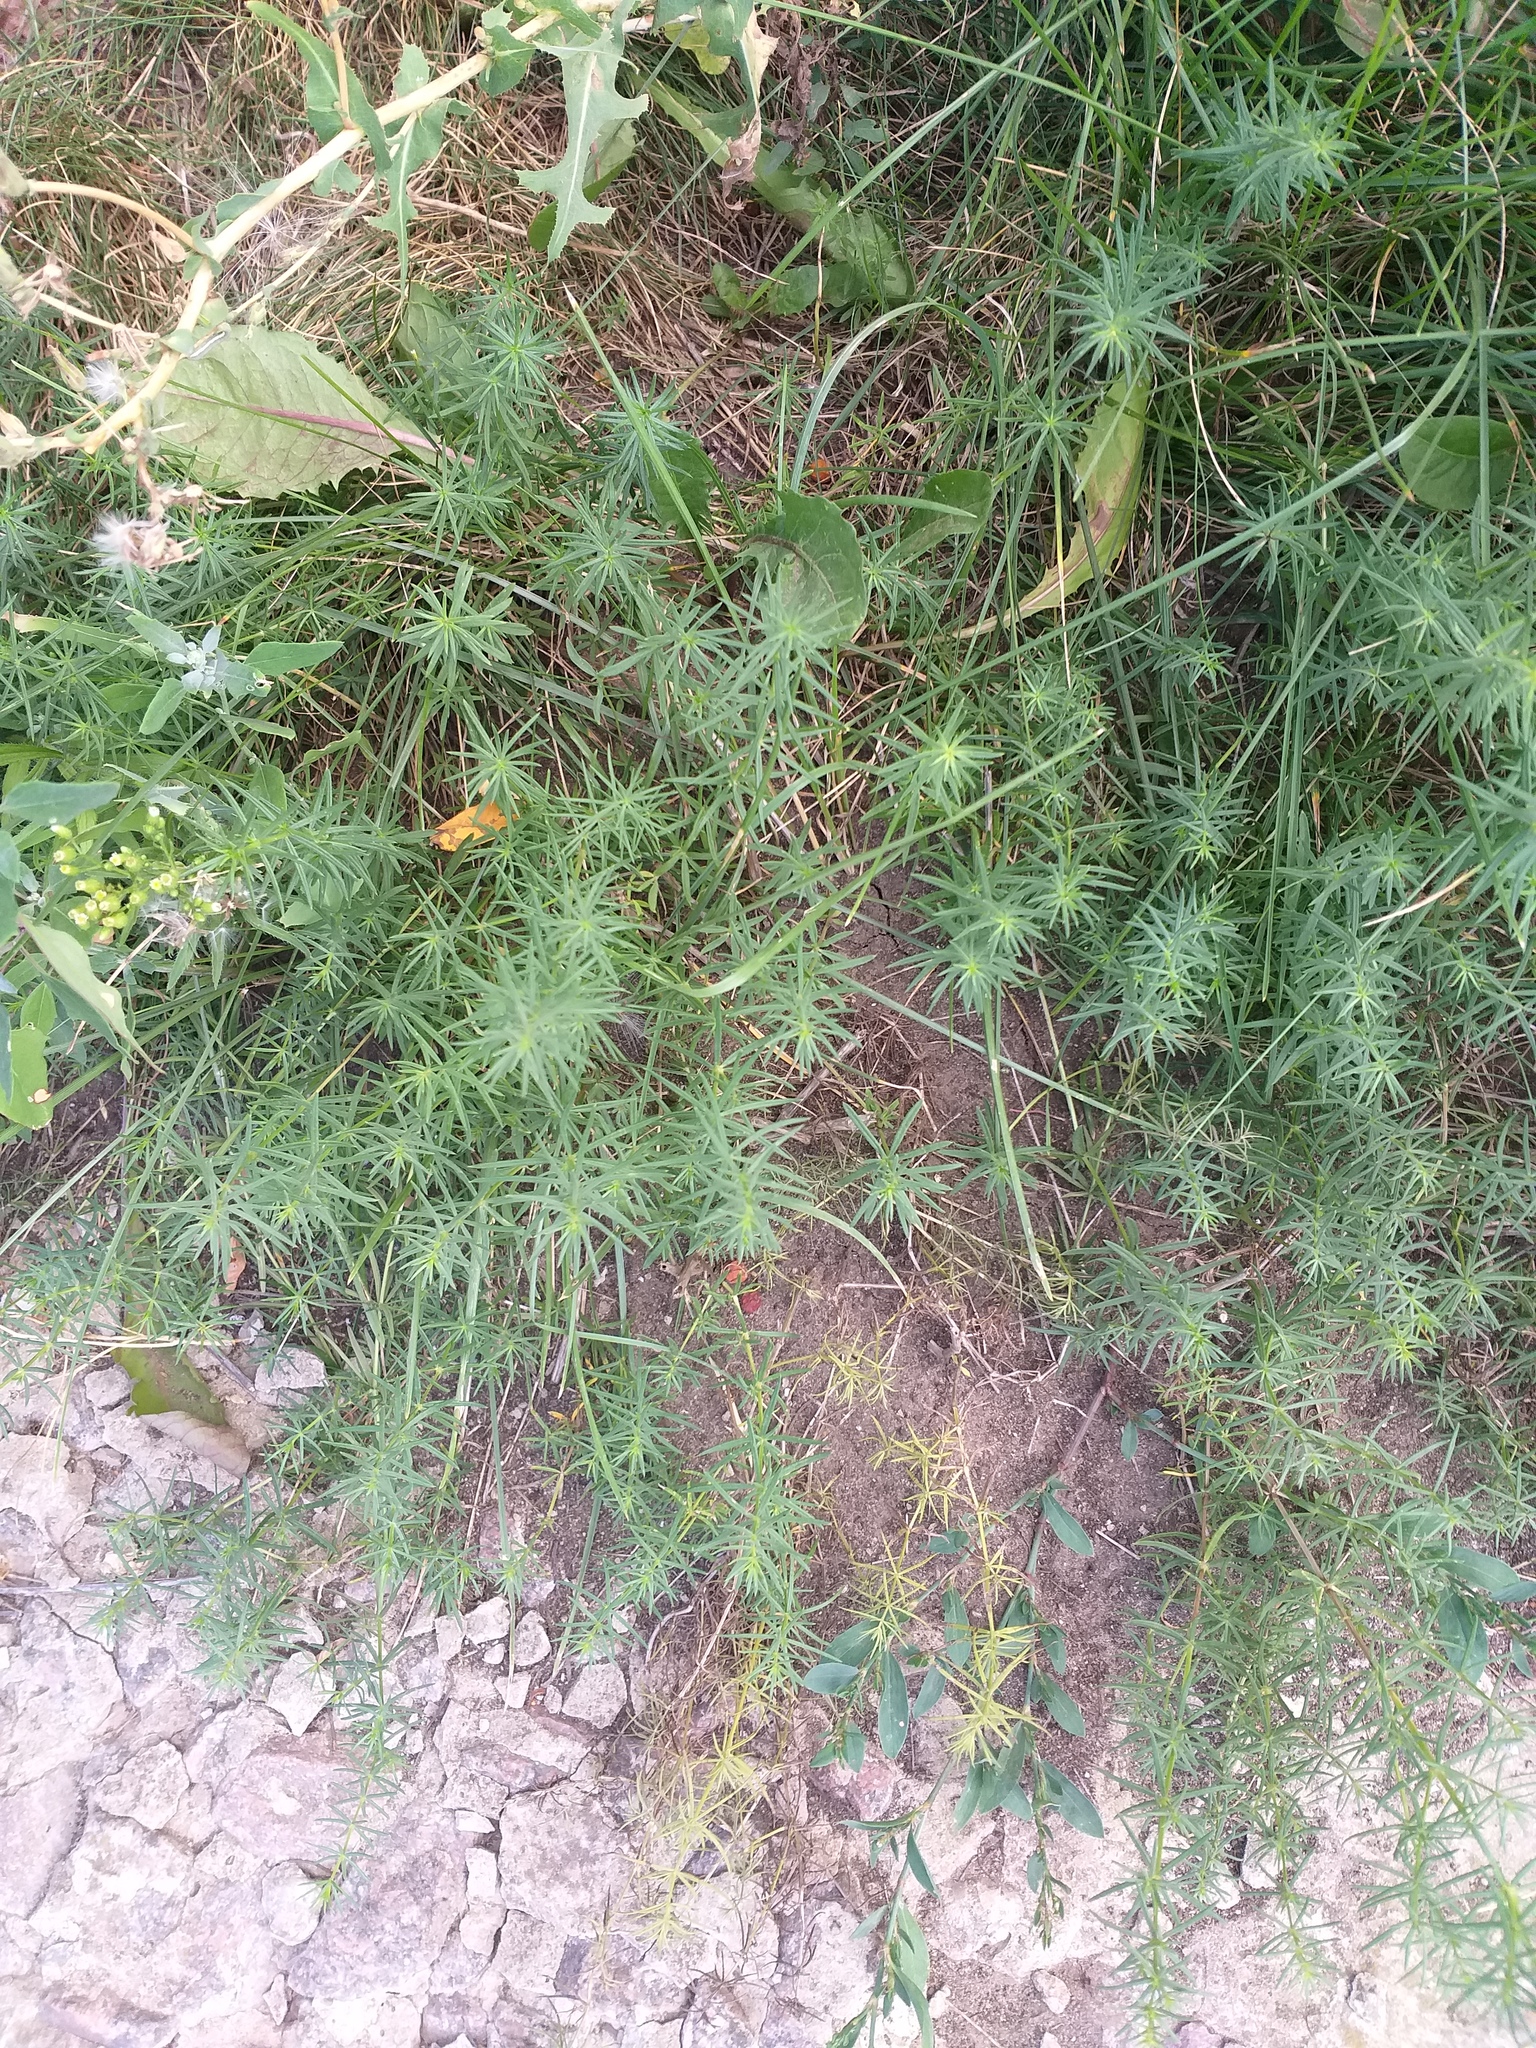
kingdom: Plantae
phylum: Tracheophyta
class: Magnoliopsida
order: Gentianales
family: Rubiaceae
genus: Galium
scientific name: Galium verum
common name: Lady's bedstraw
